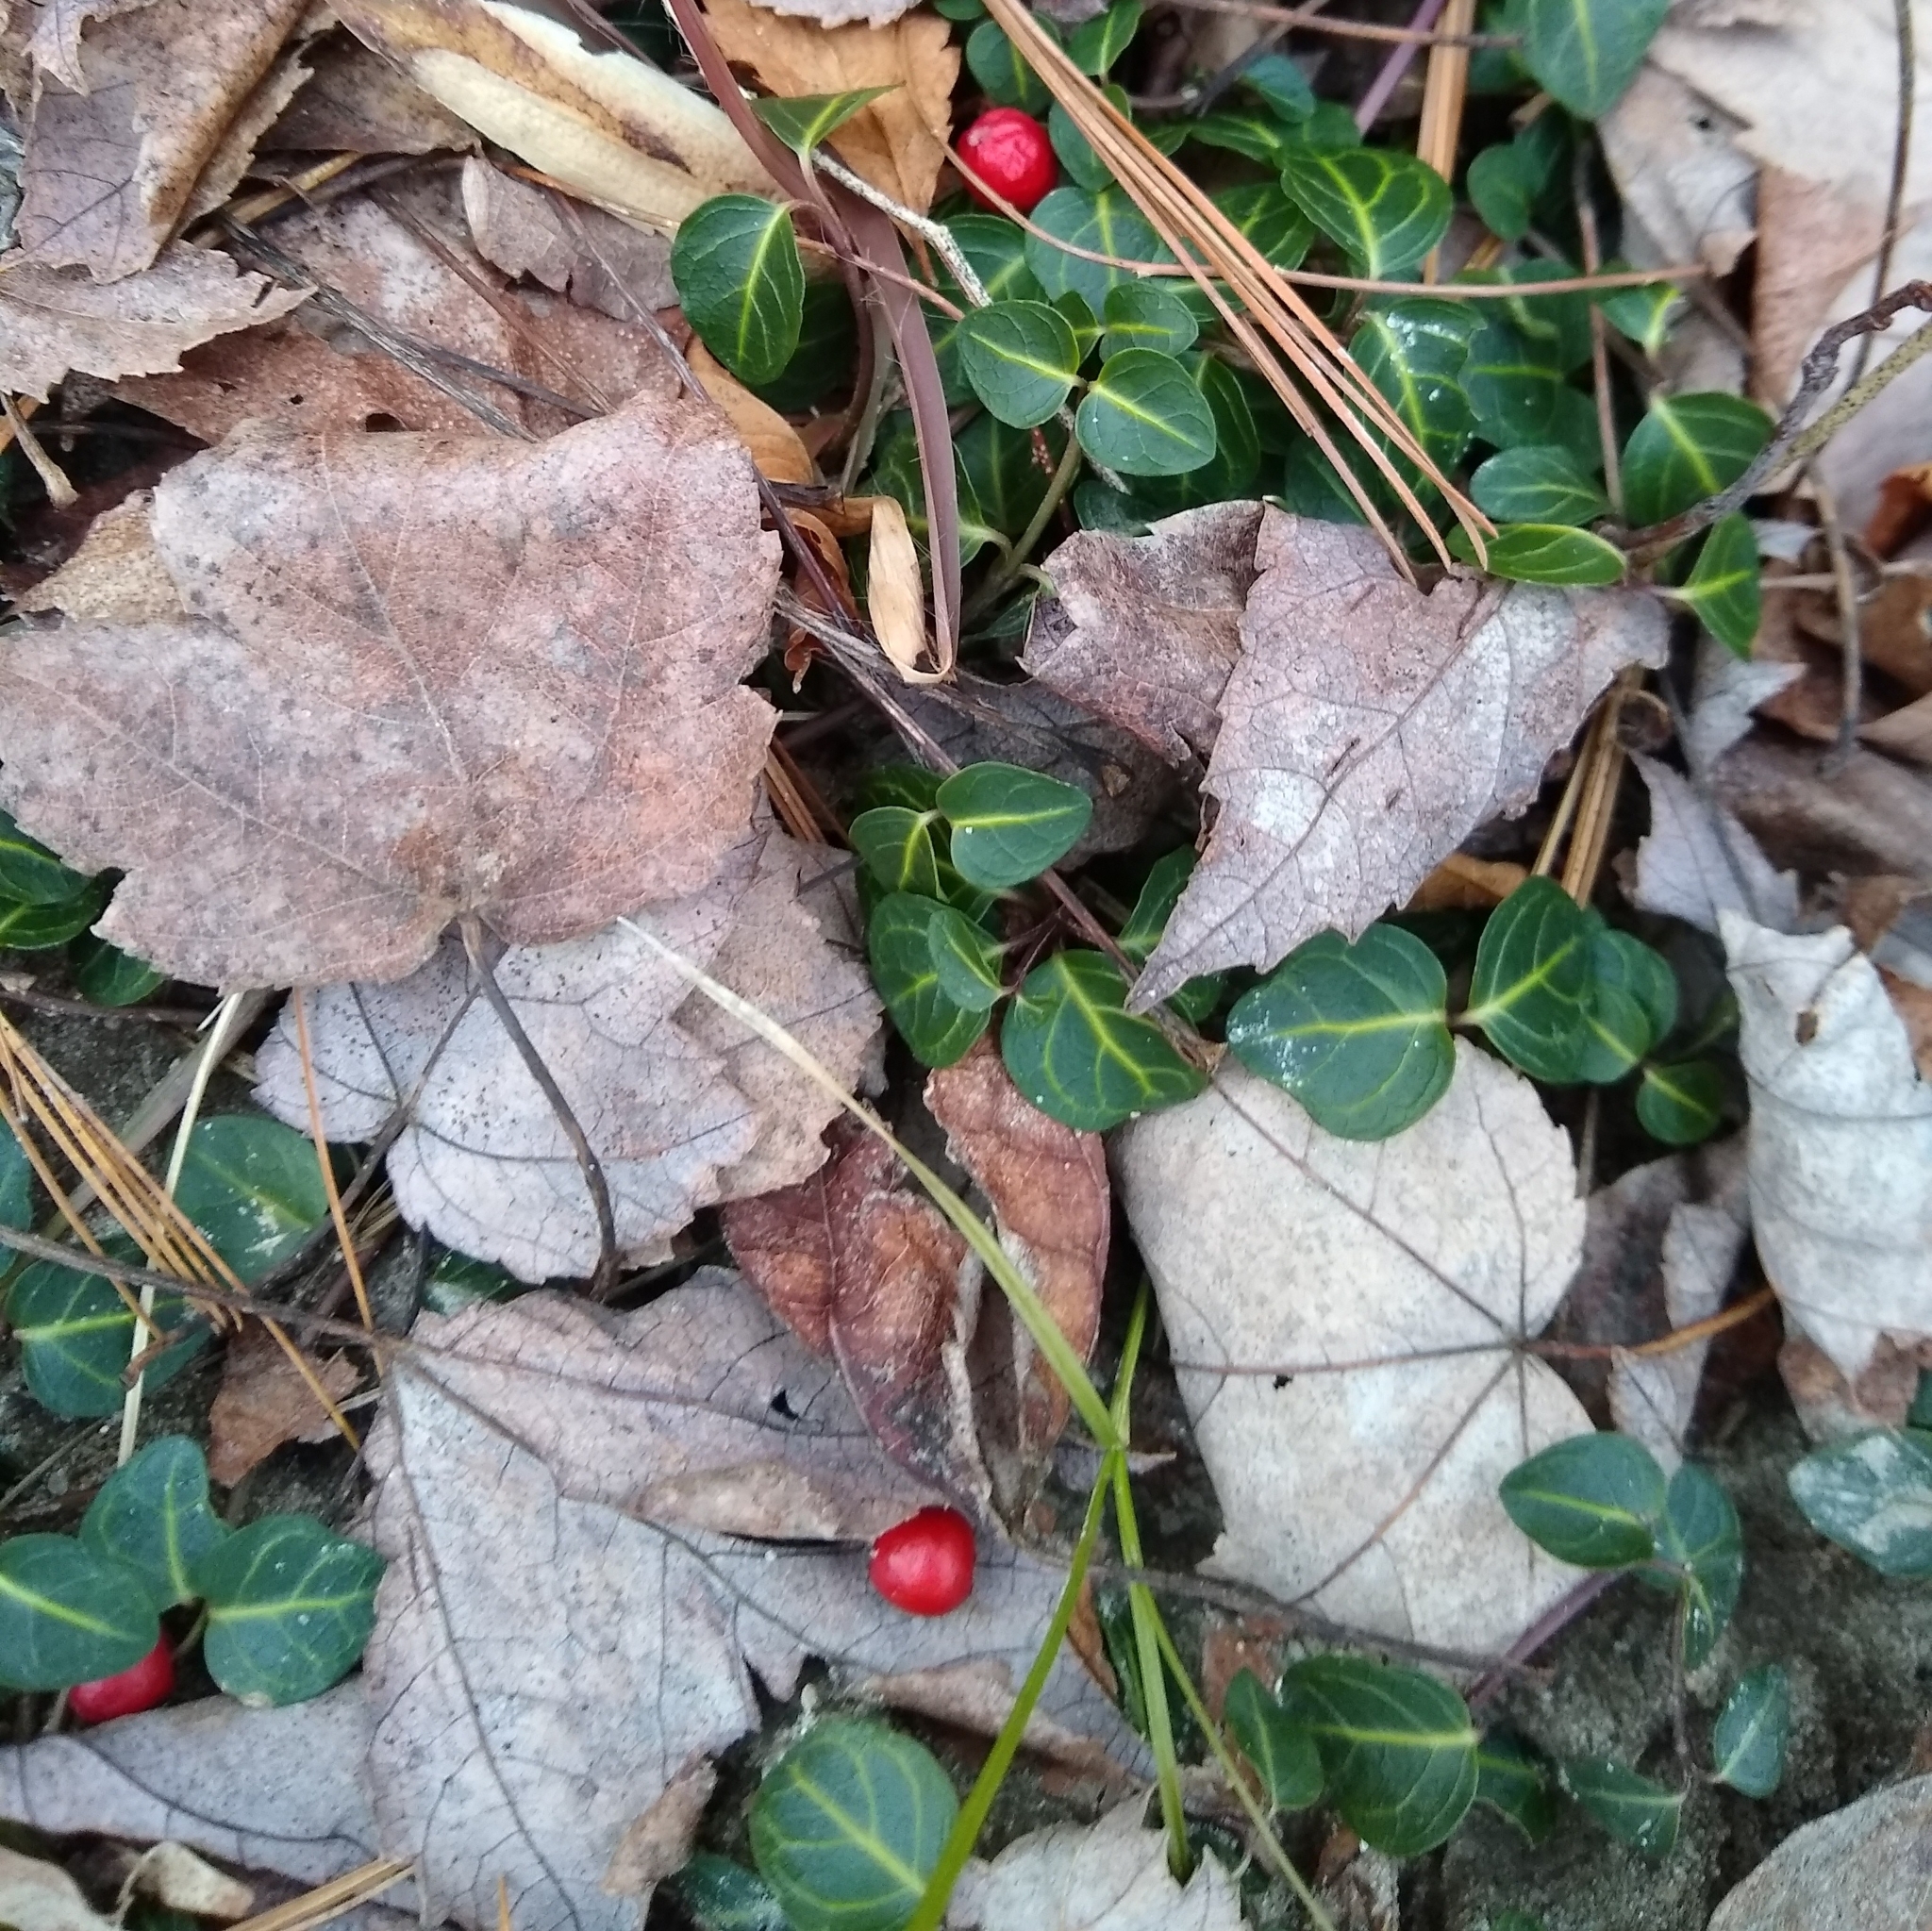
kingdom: Plantae
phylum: Tracheophyta
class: Magnoliopsida
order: Gentianales
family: Rubiaceae
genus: Mitchella
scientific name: Mitchella repens
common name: Partridge-berry
